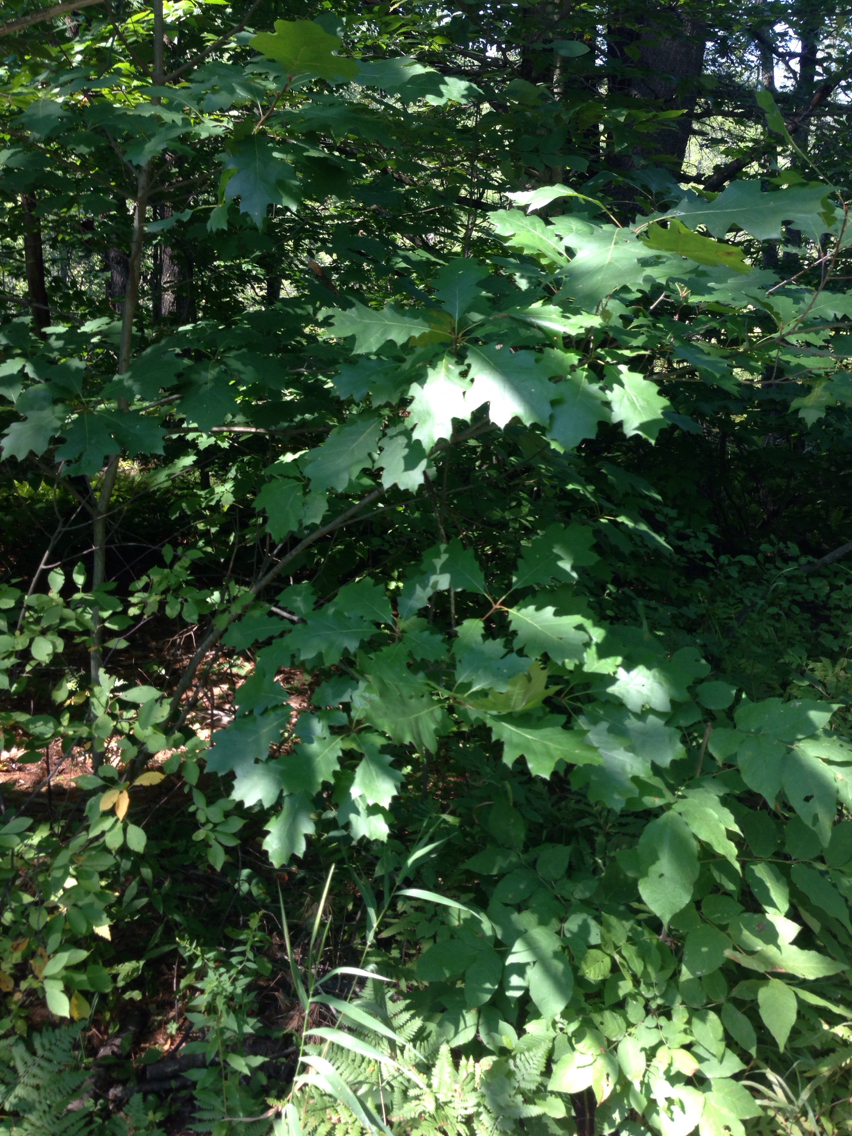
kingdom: Plantae
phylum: Tracheophyta
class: Magnoliopsida
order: Fagales
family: Fagaceae
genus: Quercus
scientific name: Quercus rubra
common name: Red oak
